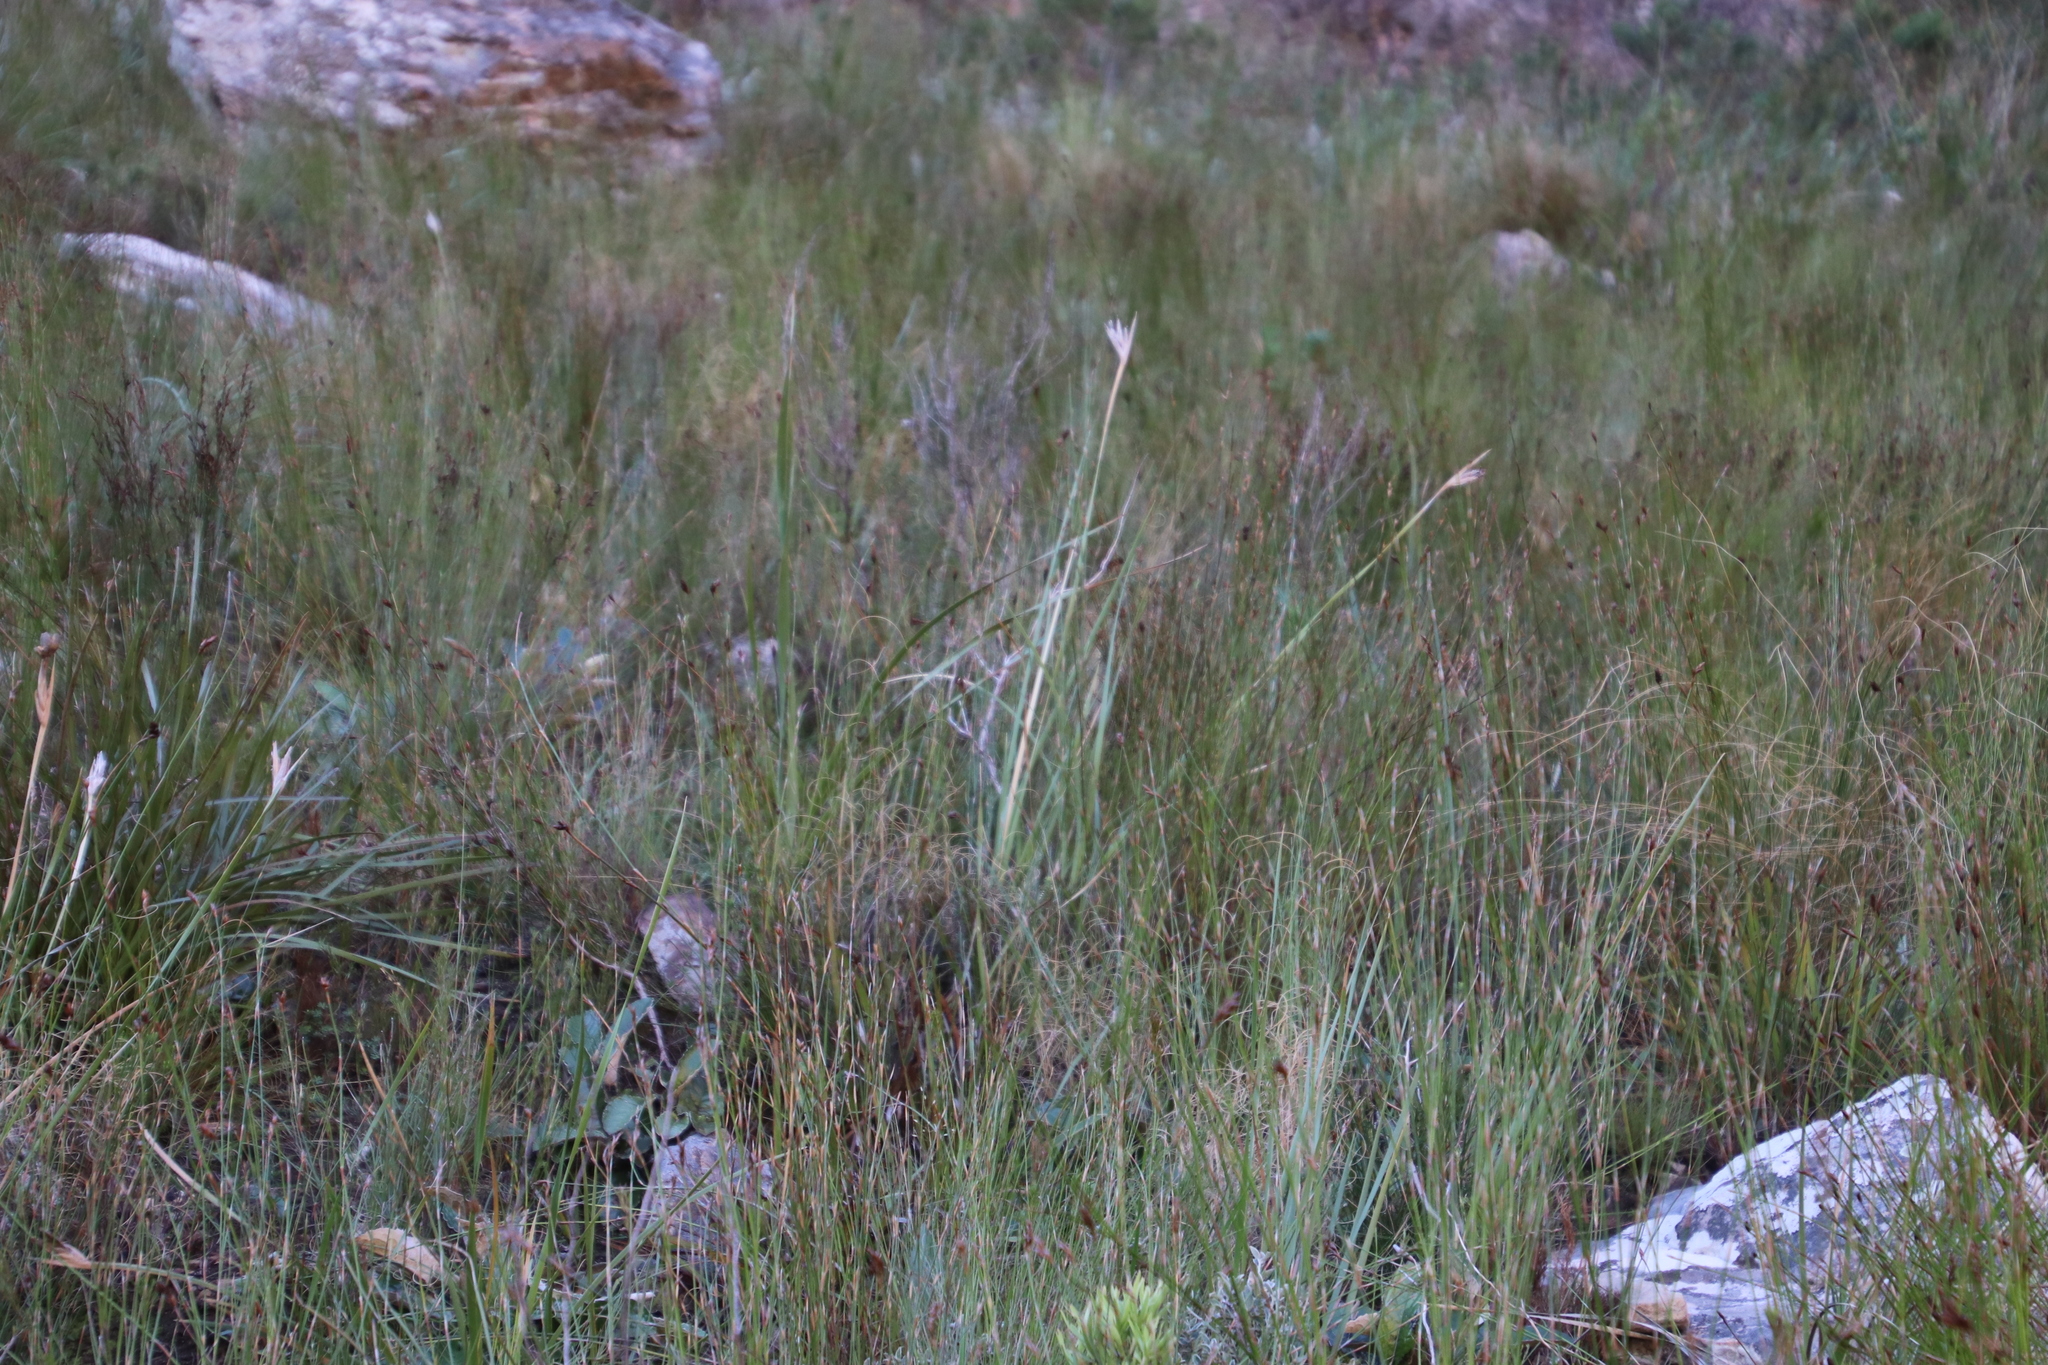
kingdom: Plantae
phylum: Tracheophyta
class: Liliopsida
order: Asparagales
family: Iridaceae
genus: Bobartia
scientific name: Bobartia gladiata
